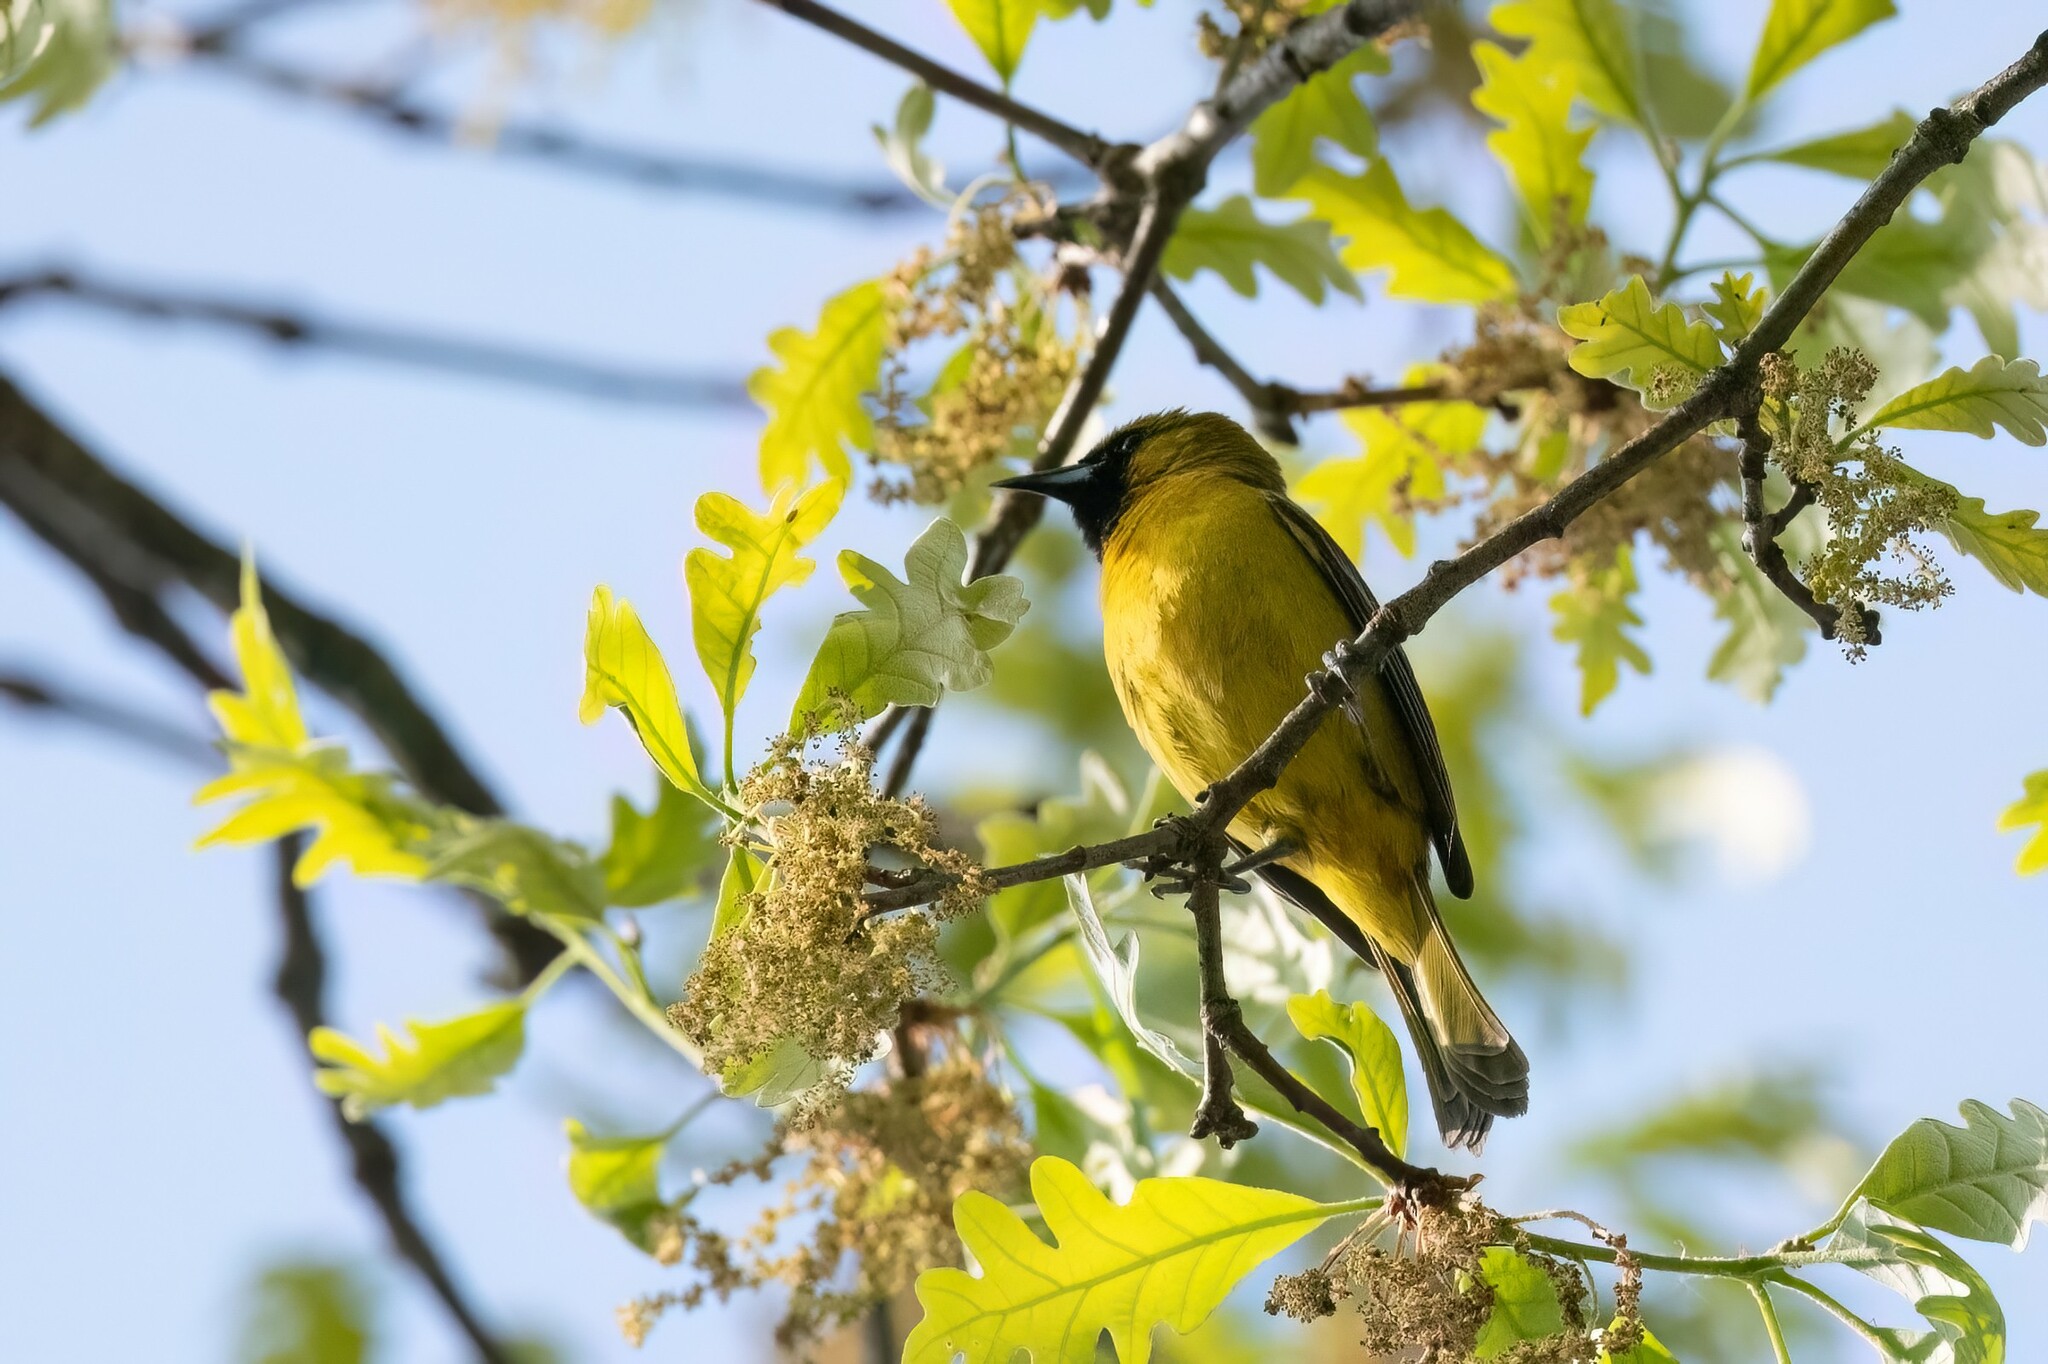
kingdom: Animalia
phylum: Chordata
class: Aves
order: Passeriformes
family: Icteridae
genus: Icterus
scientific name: Icterus spurius
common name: Orchard oriole
